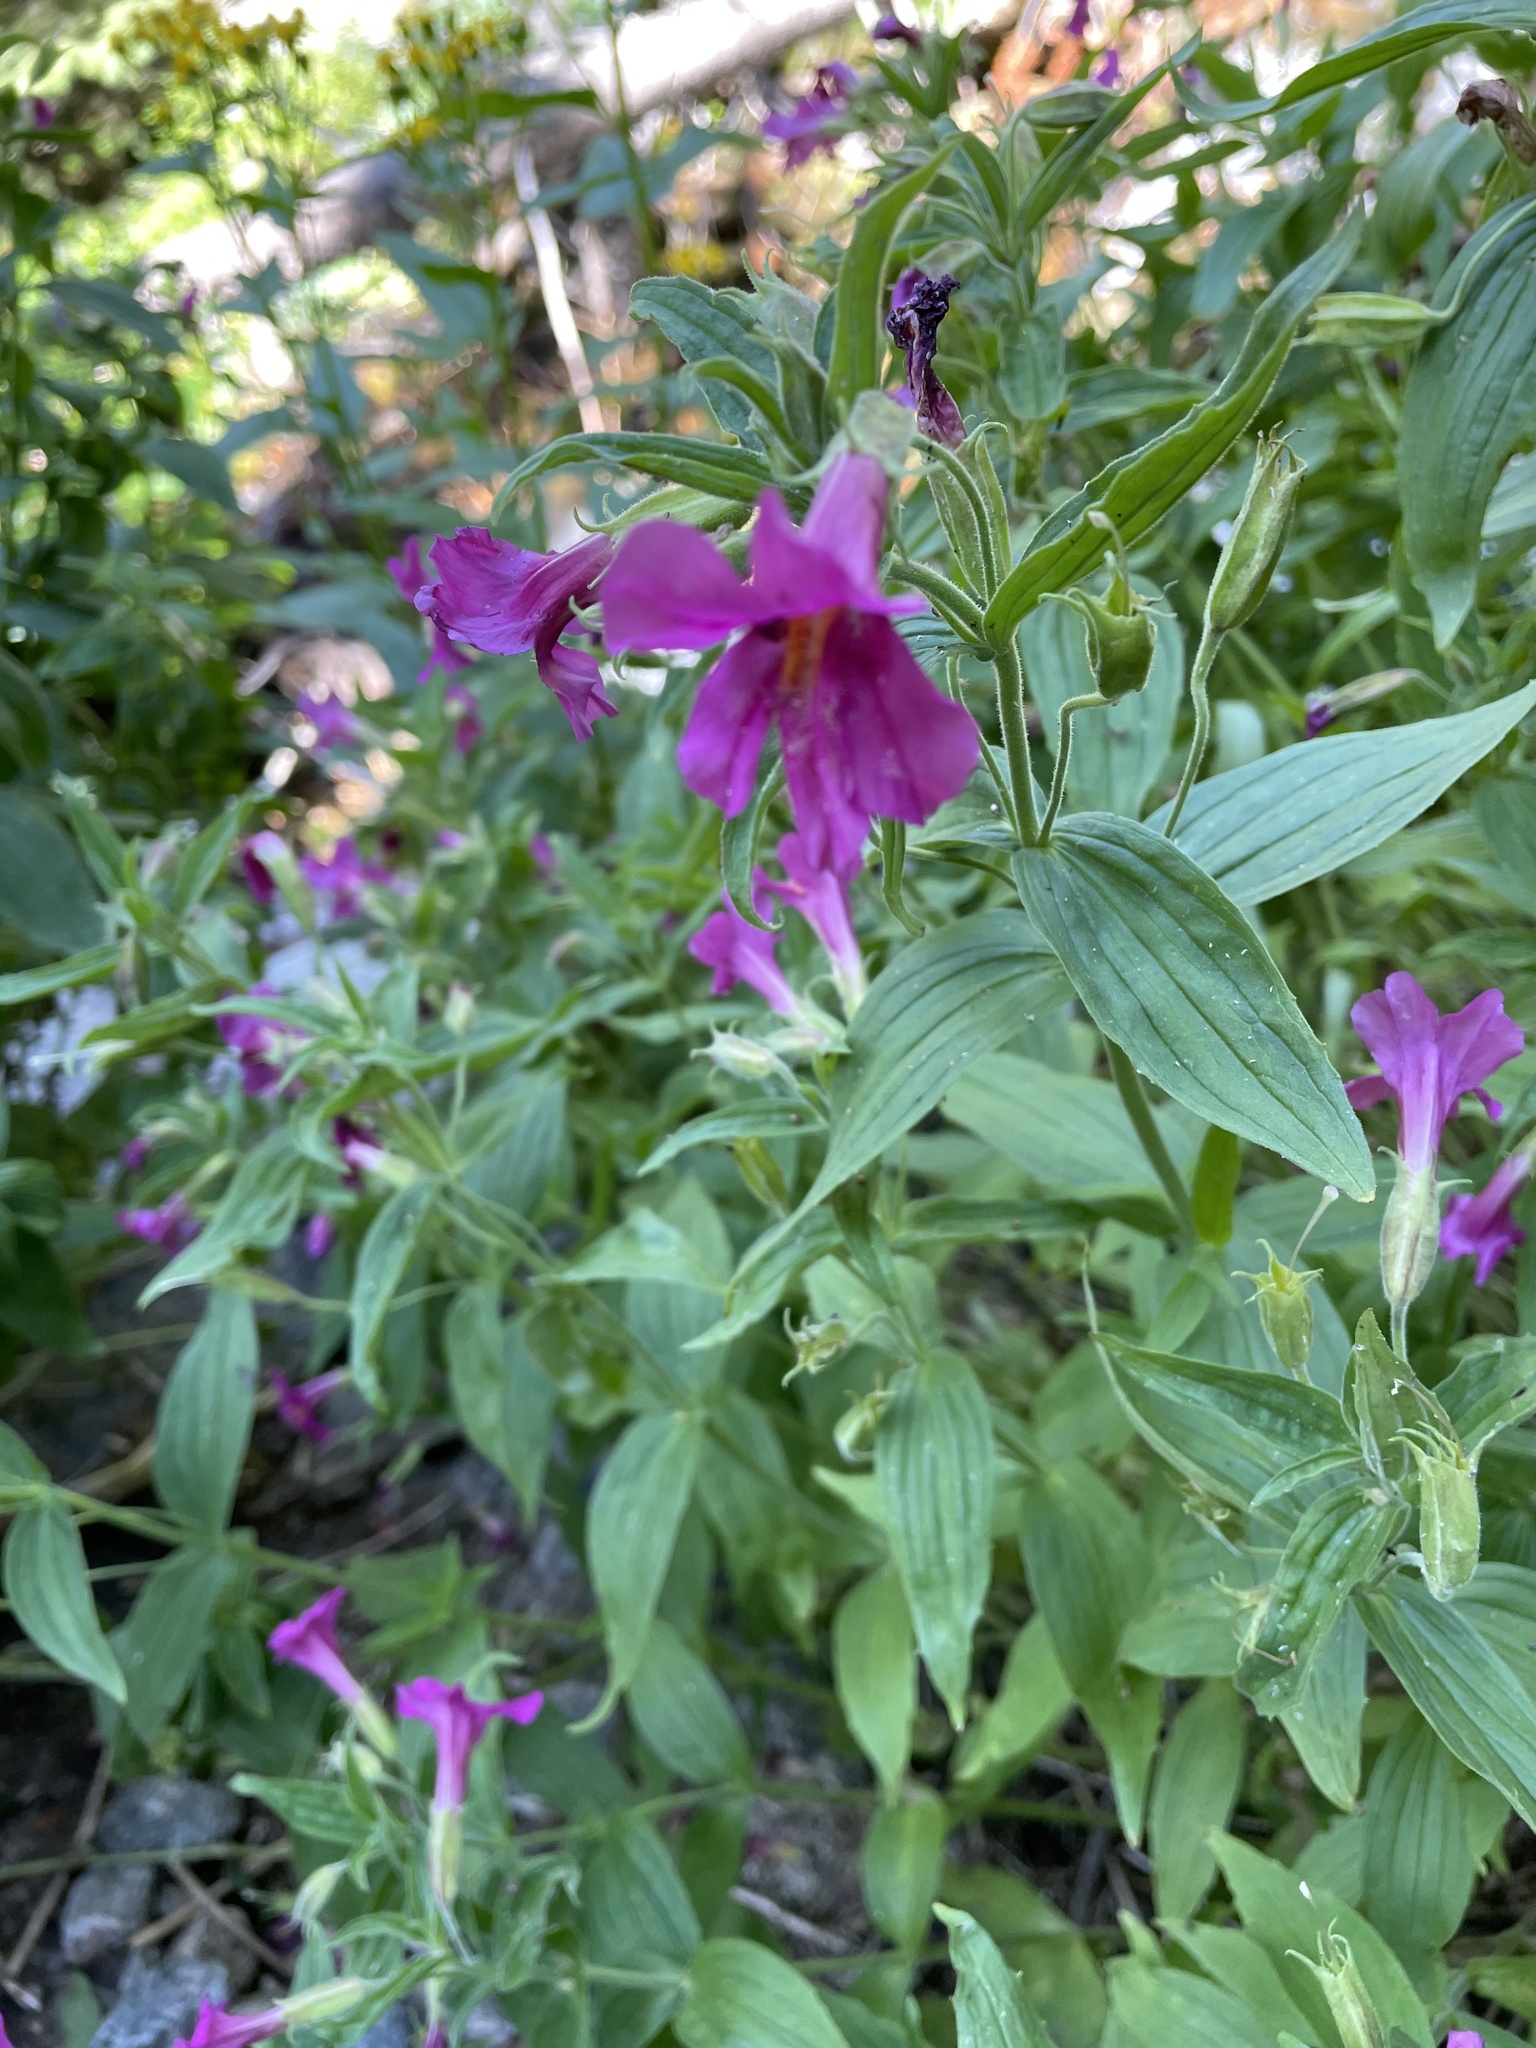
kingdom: Plantae
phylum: Tracheophyta
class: Magnoliopsida
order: Lamiales
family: Phrymaceae
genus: Erythranthe
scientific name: Erythranthe lewisii
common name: Lewis's monkey-flower
